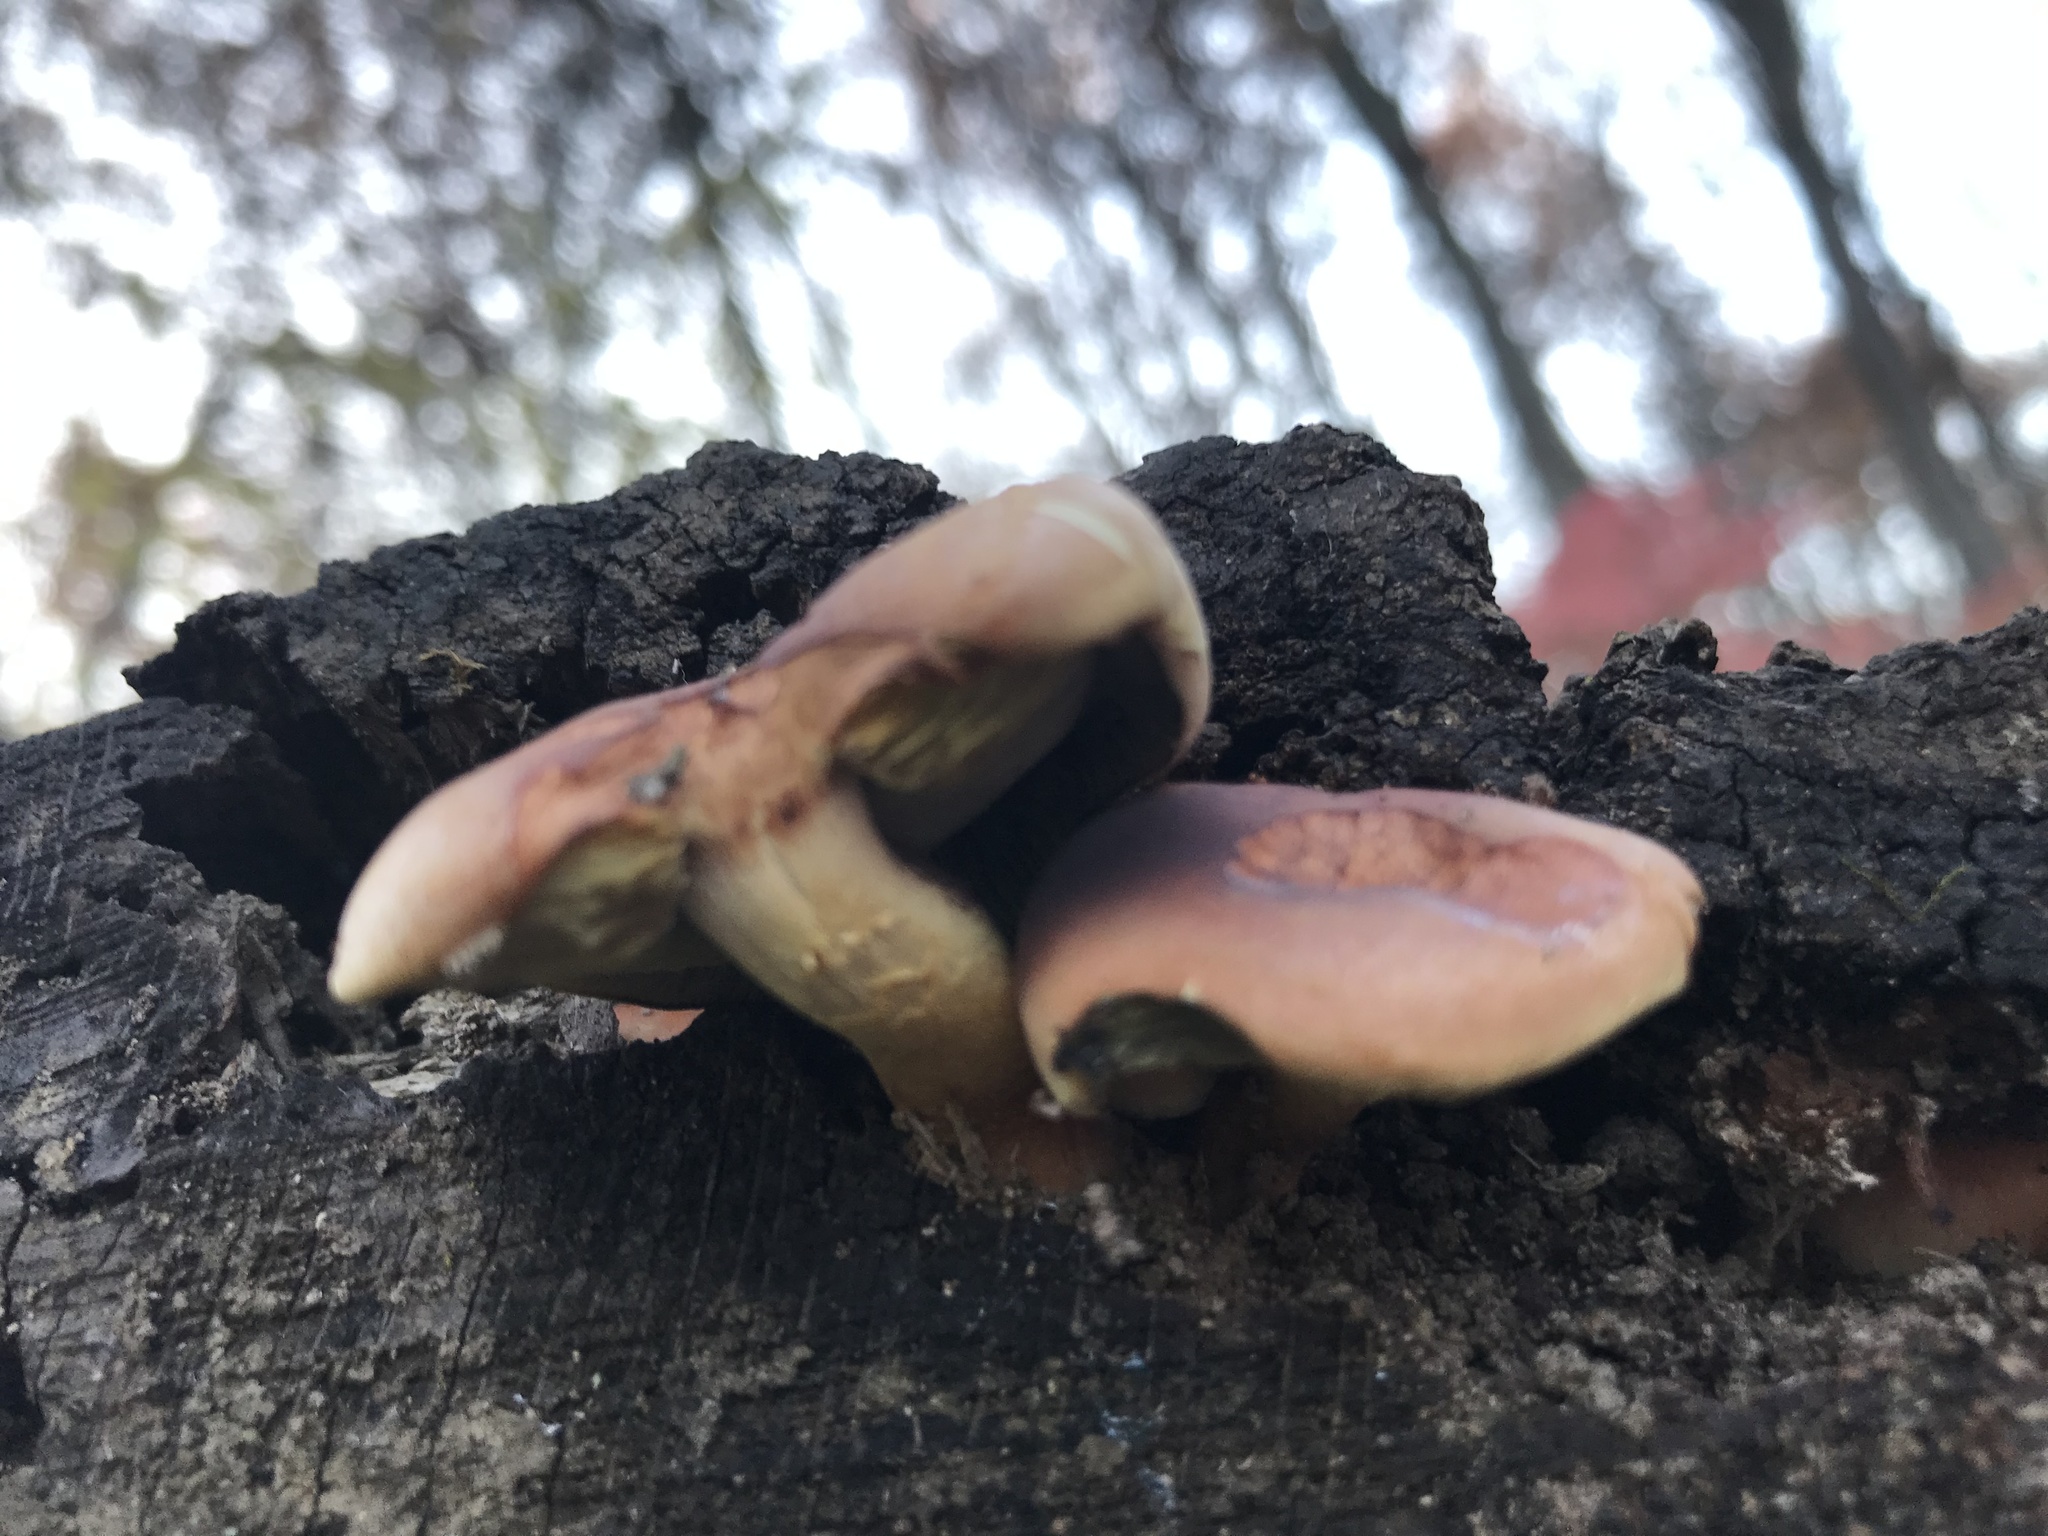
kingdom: Fungi
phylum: Basidiomycota
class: Agaricomycetes
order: Agaricales
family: Strophariaceae
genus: Hypholoma
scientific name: Hypholoma lateritium
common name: Brick caps
